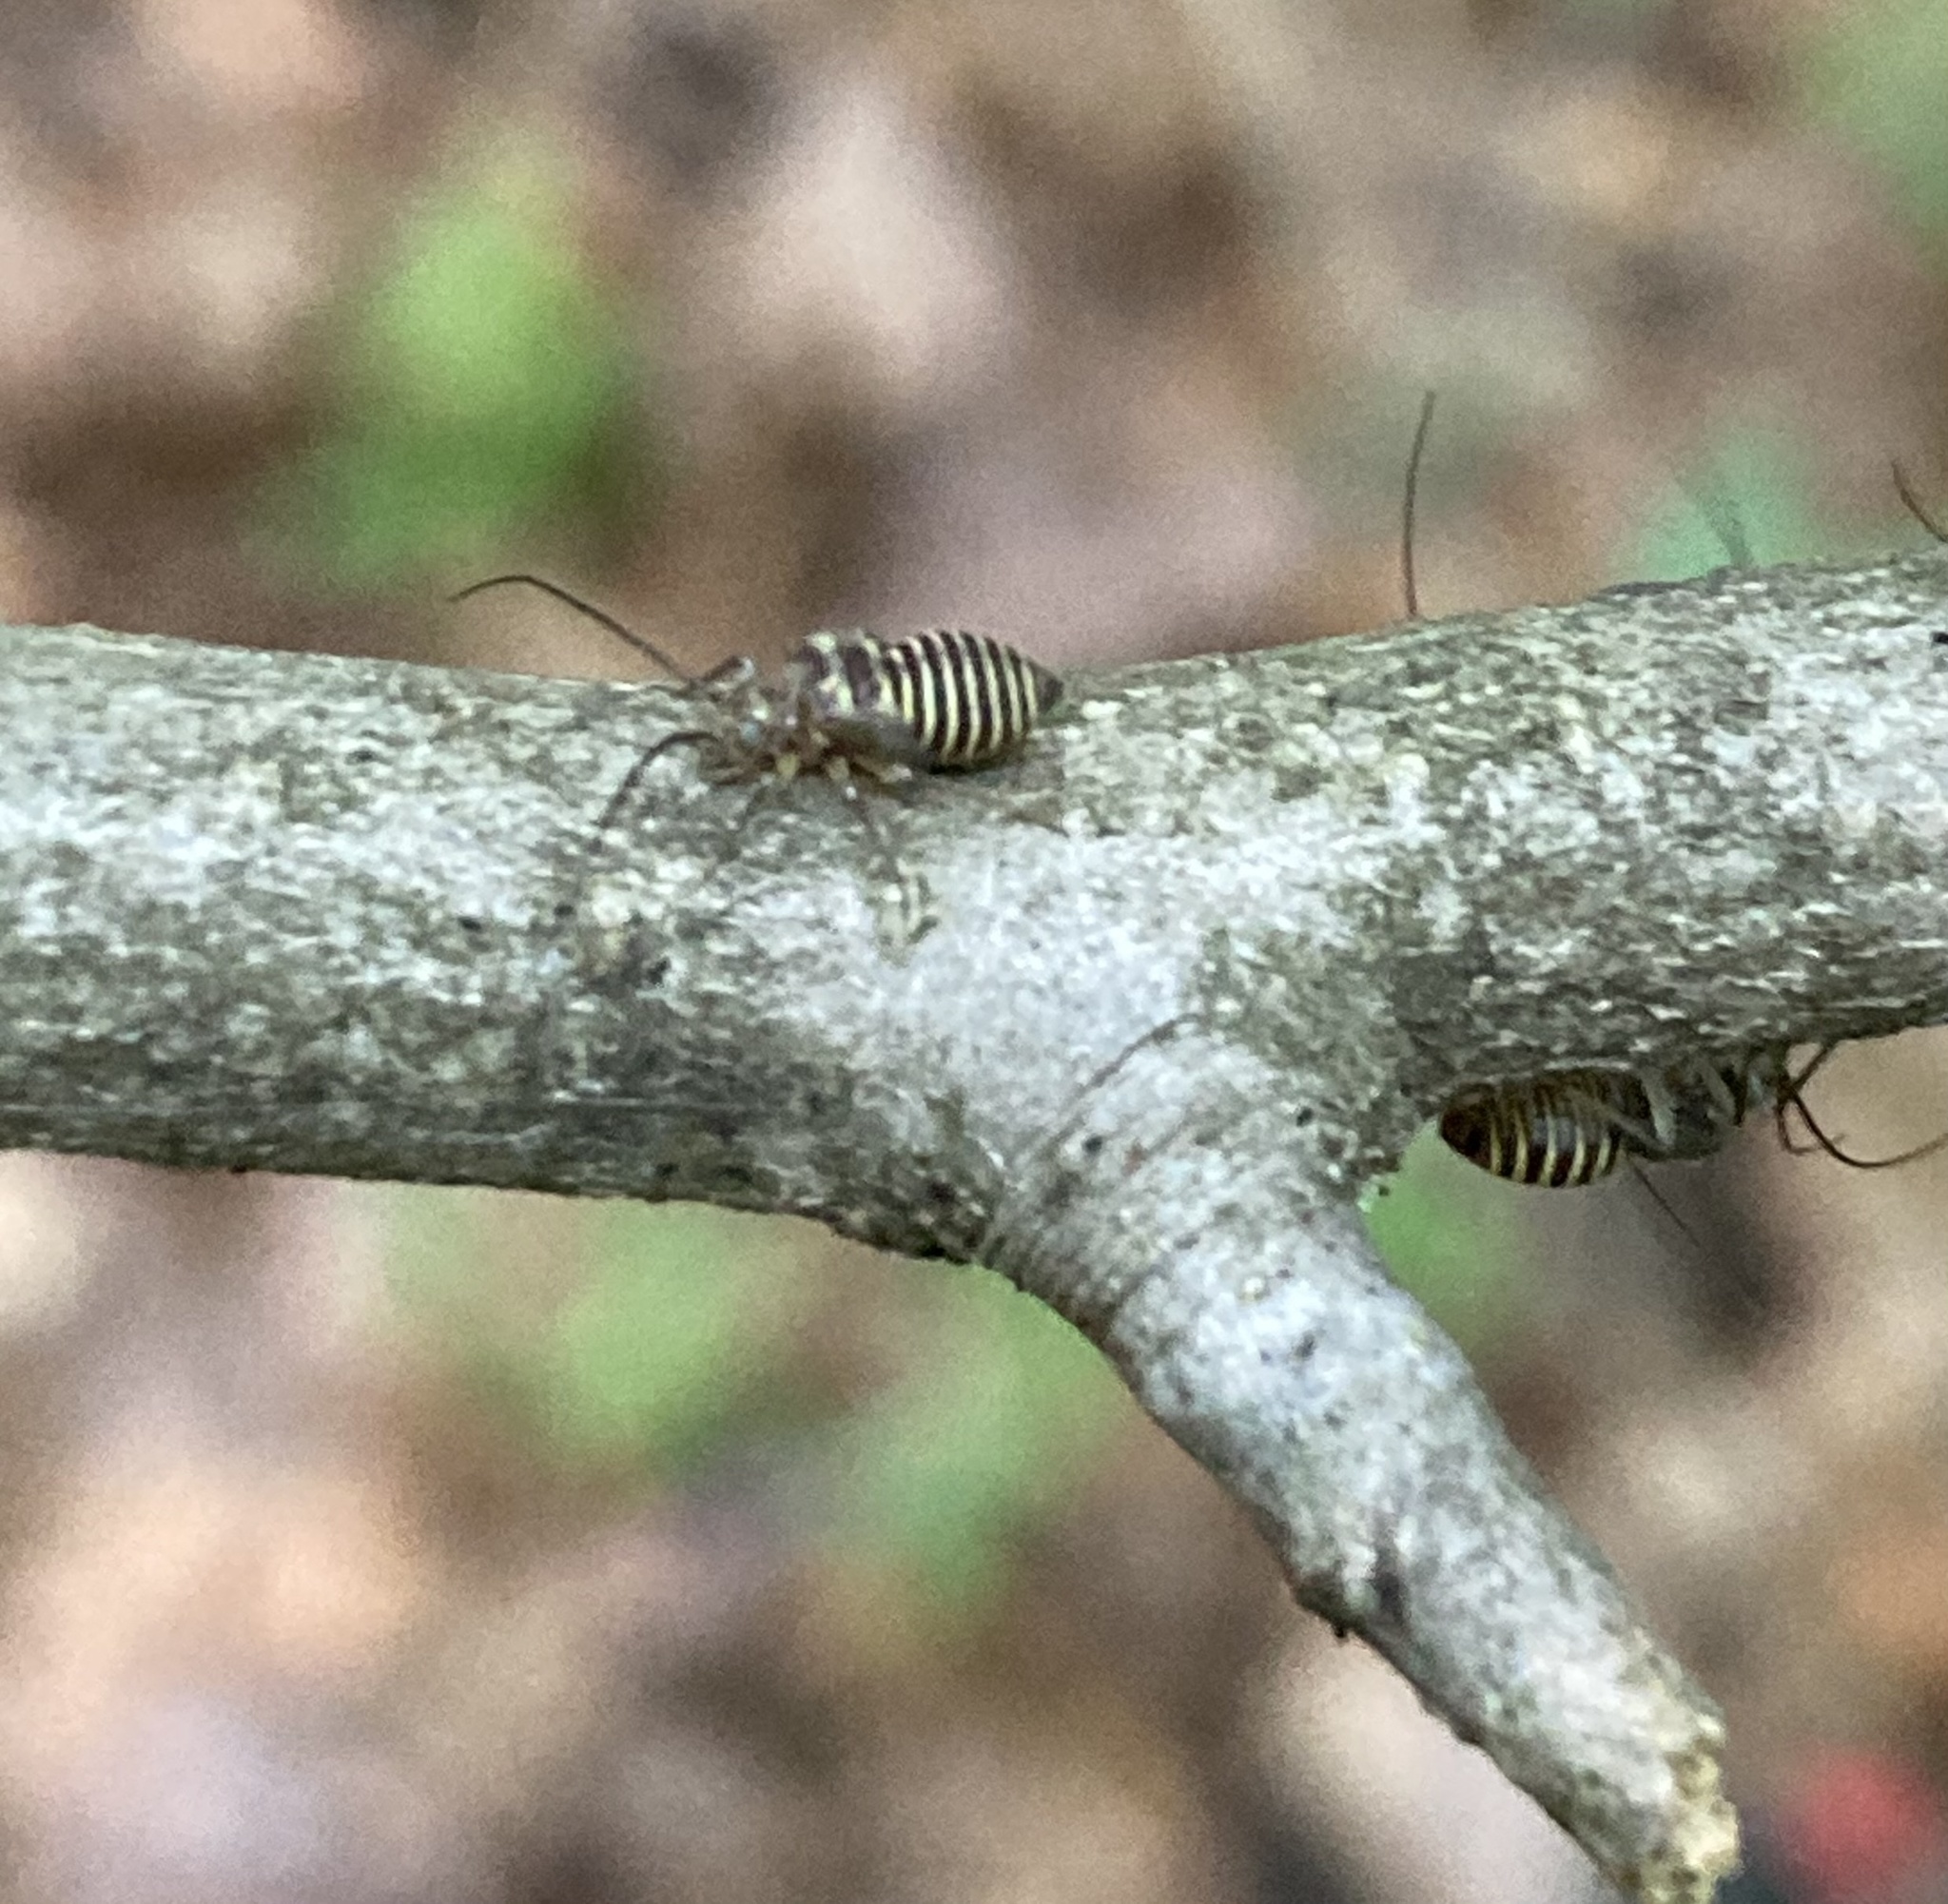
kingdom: Animalia
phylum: Arthropoda
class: Insecta
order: Psocodea
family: Psocidae
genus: Cerastipsocus
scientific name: Cerastipsocus venosus
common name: Tree cattle
